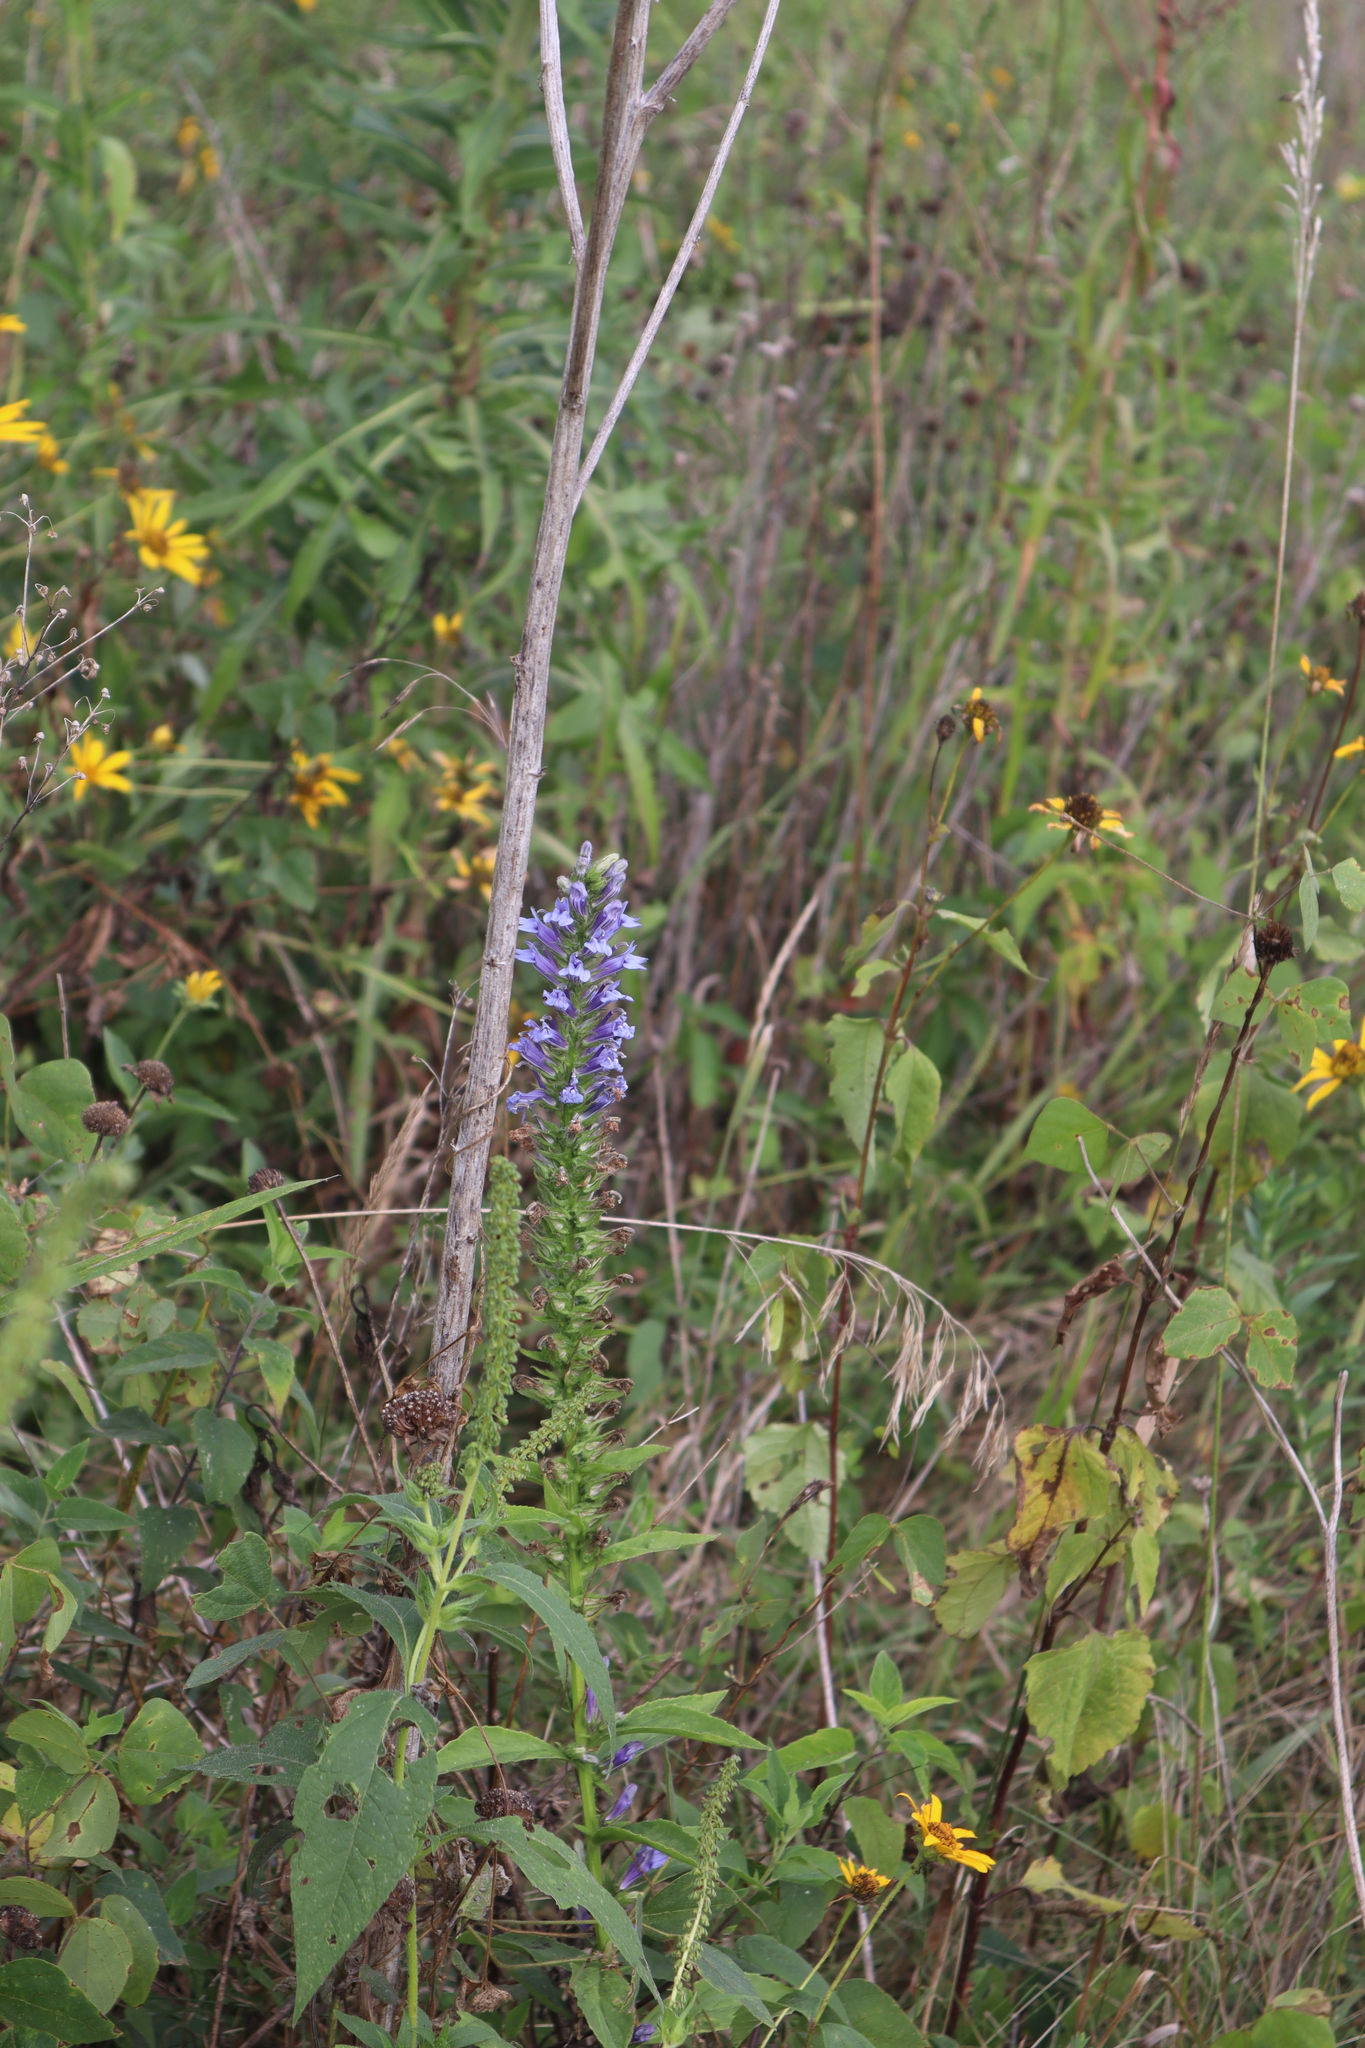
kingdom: Plantae
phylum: Tracheophyta
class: Magnoliopsida
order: Asterales
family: Campanulaceae
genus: Lobelia
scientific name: Lobelia siphilitica
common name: Great lobelia
